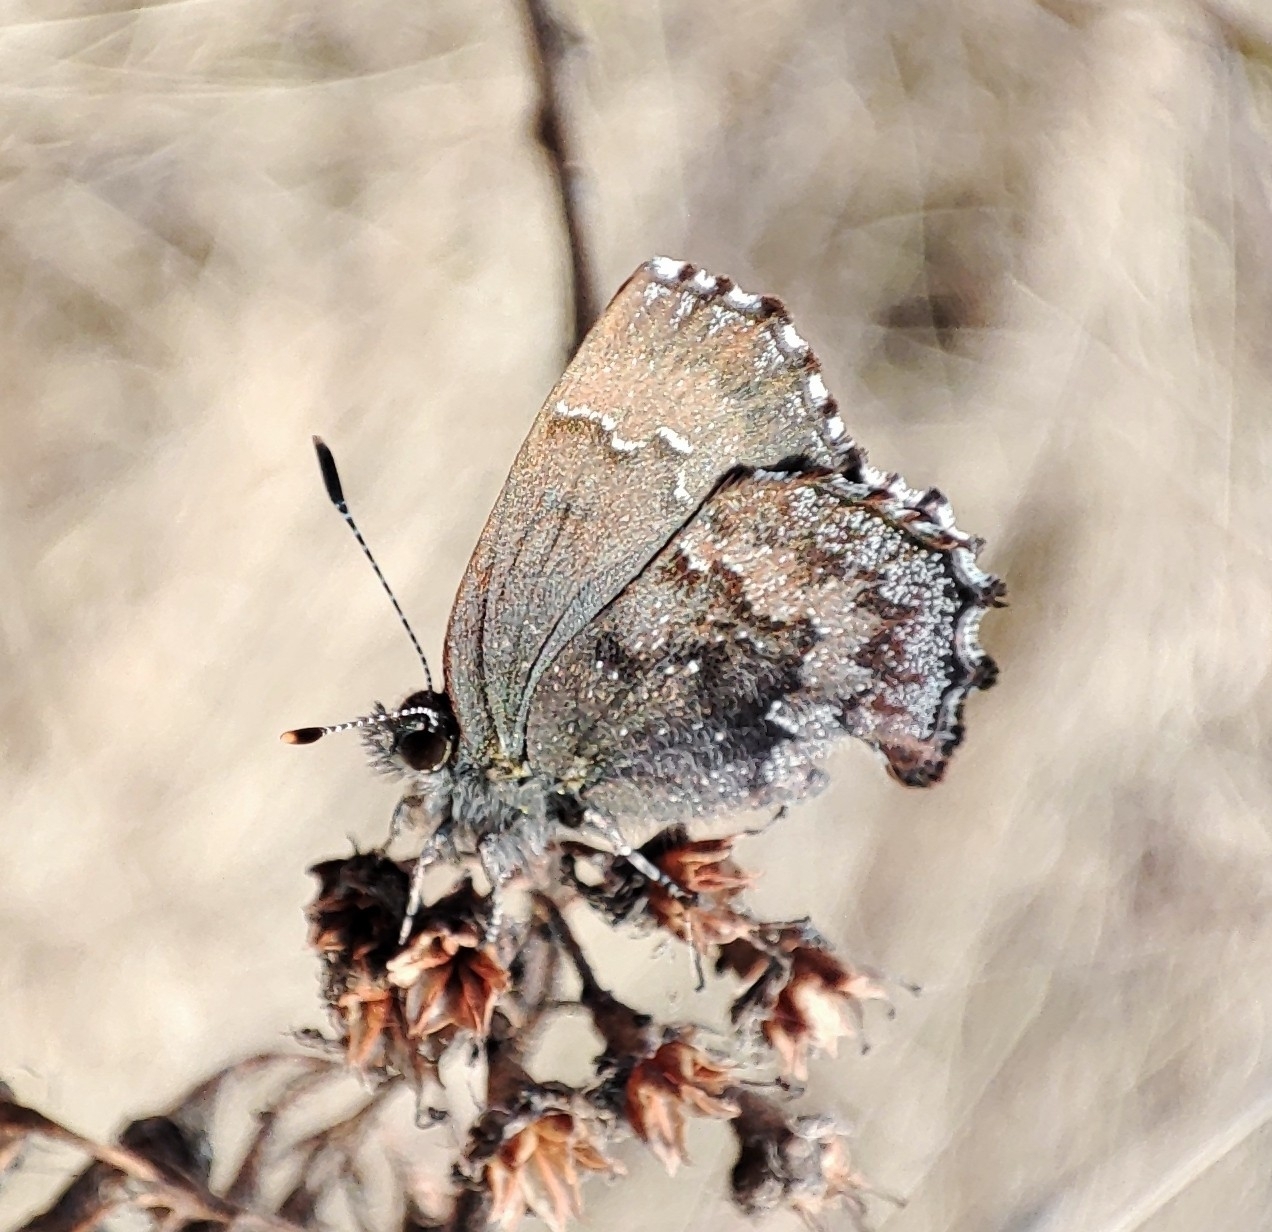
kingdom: Animalia
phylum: Arthropoda
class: Insecta
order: Lepidoptera
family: Lycaenidae
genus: Ginzia
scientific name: Ginzia Ahlbergia frivaldszkyi
